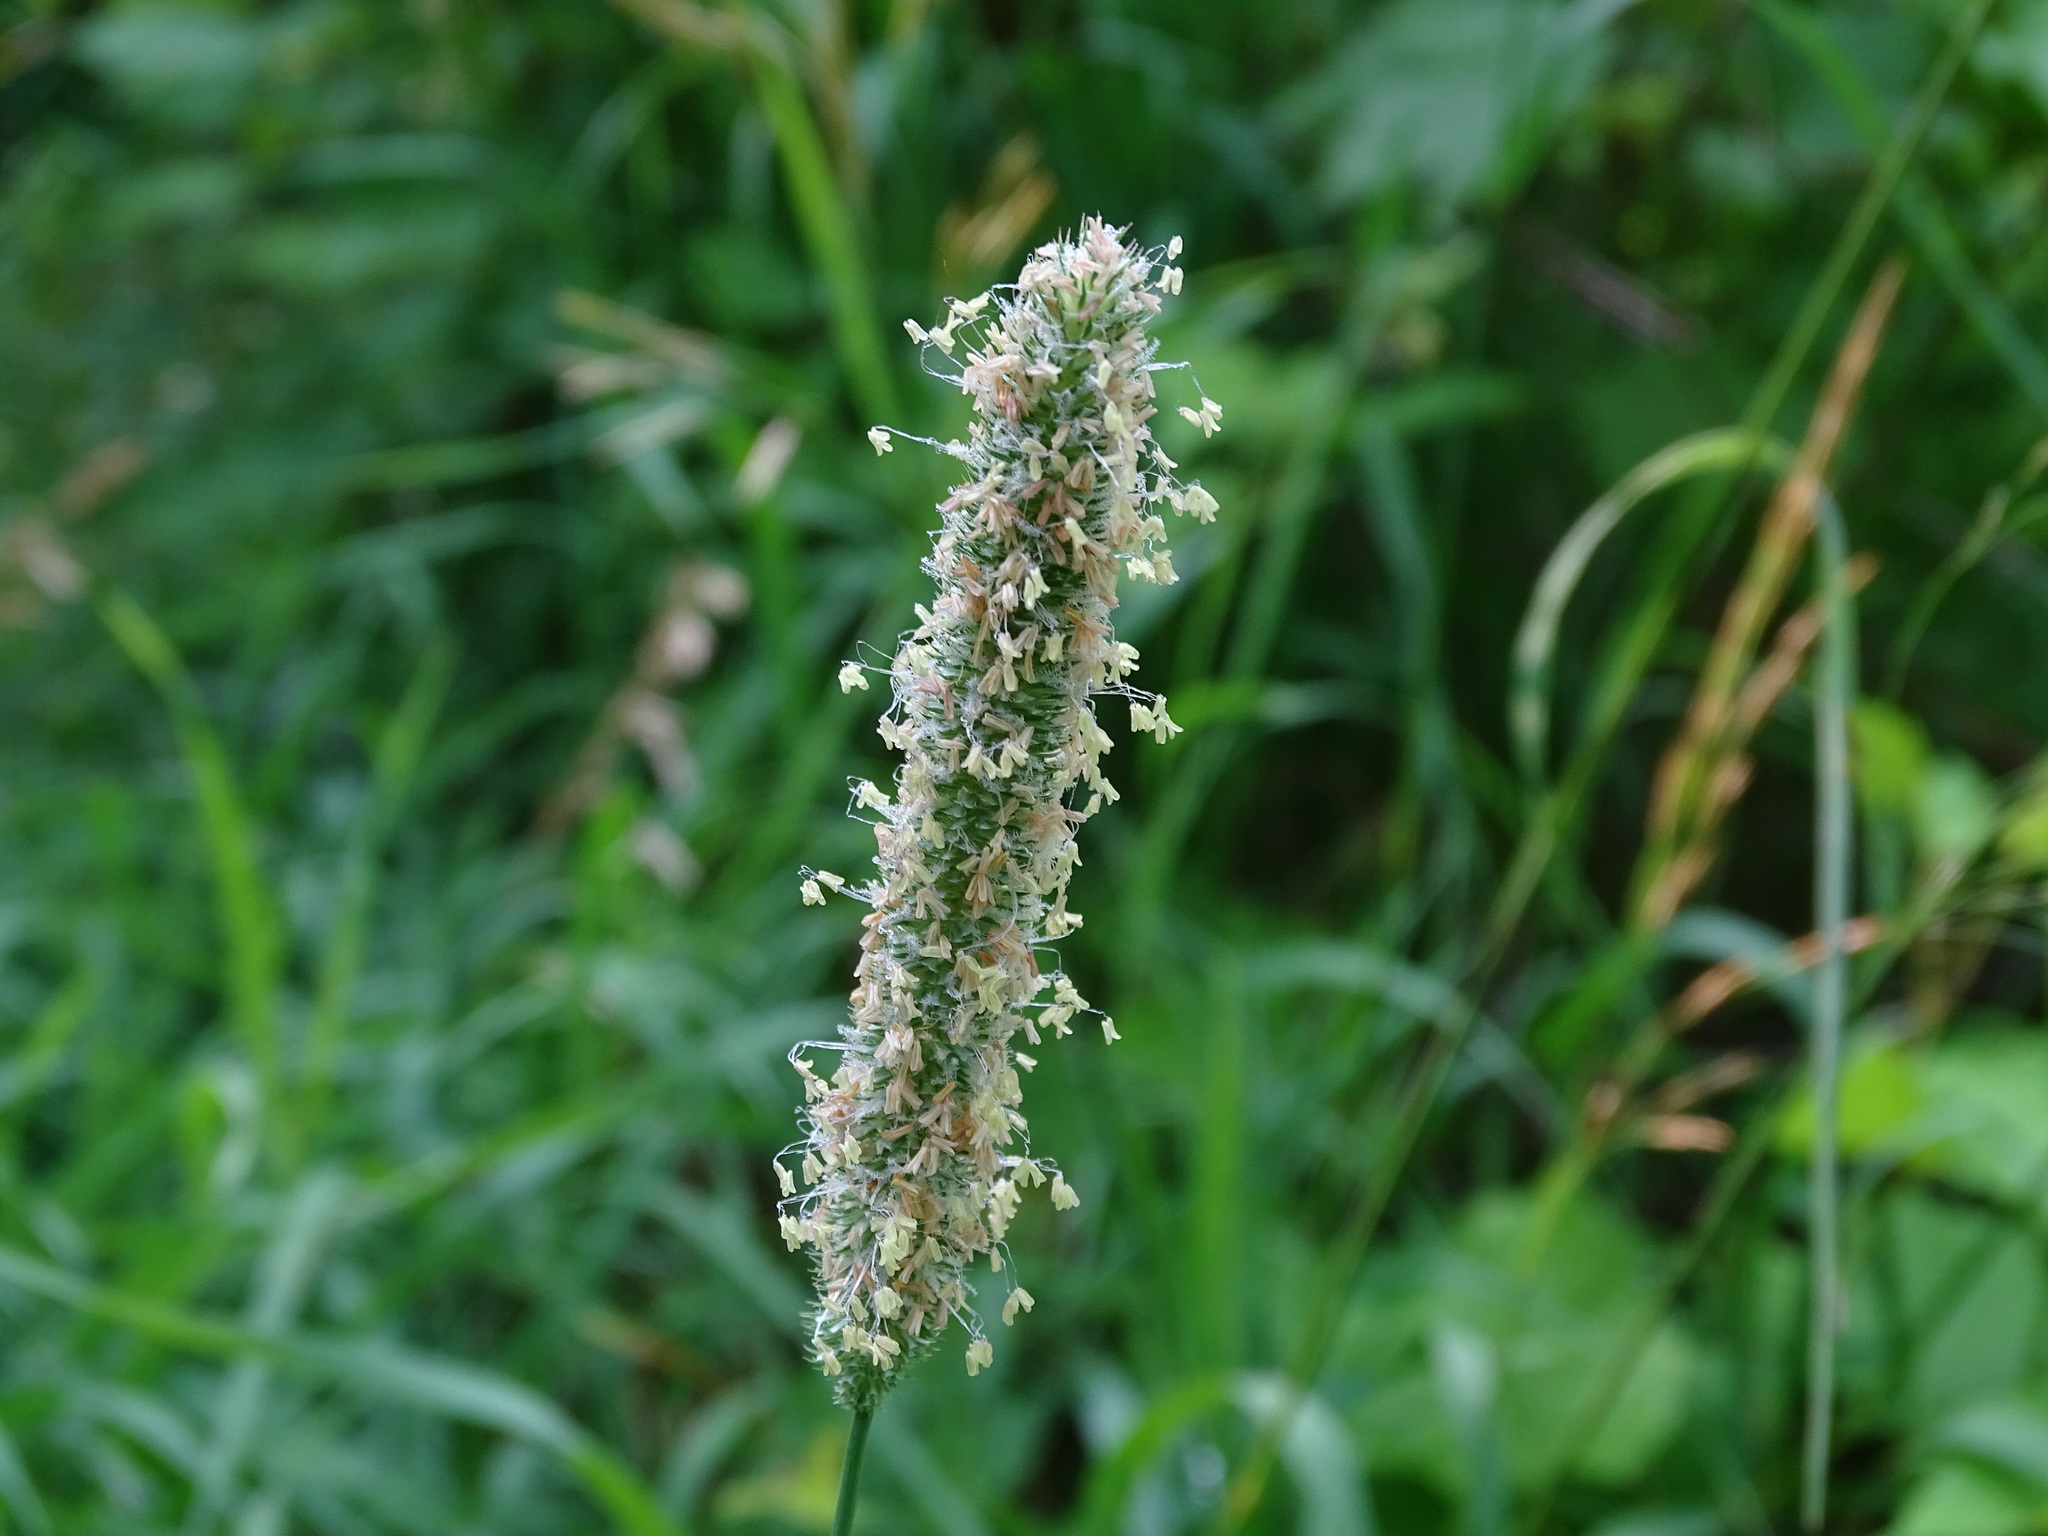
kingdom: Plantae
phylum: Tracheophyta
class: Liliopsida
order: Poales
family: Poaceae
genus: Phleum
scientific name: Phleum pratense
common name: Timothy grass
